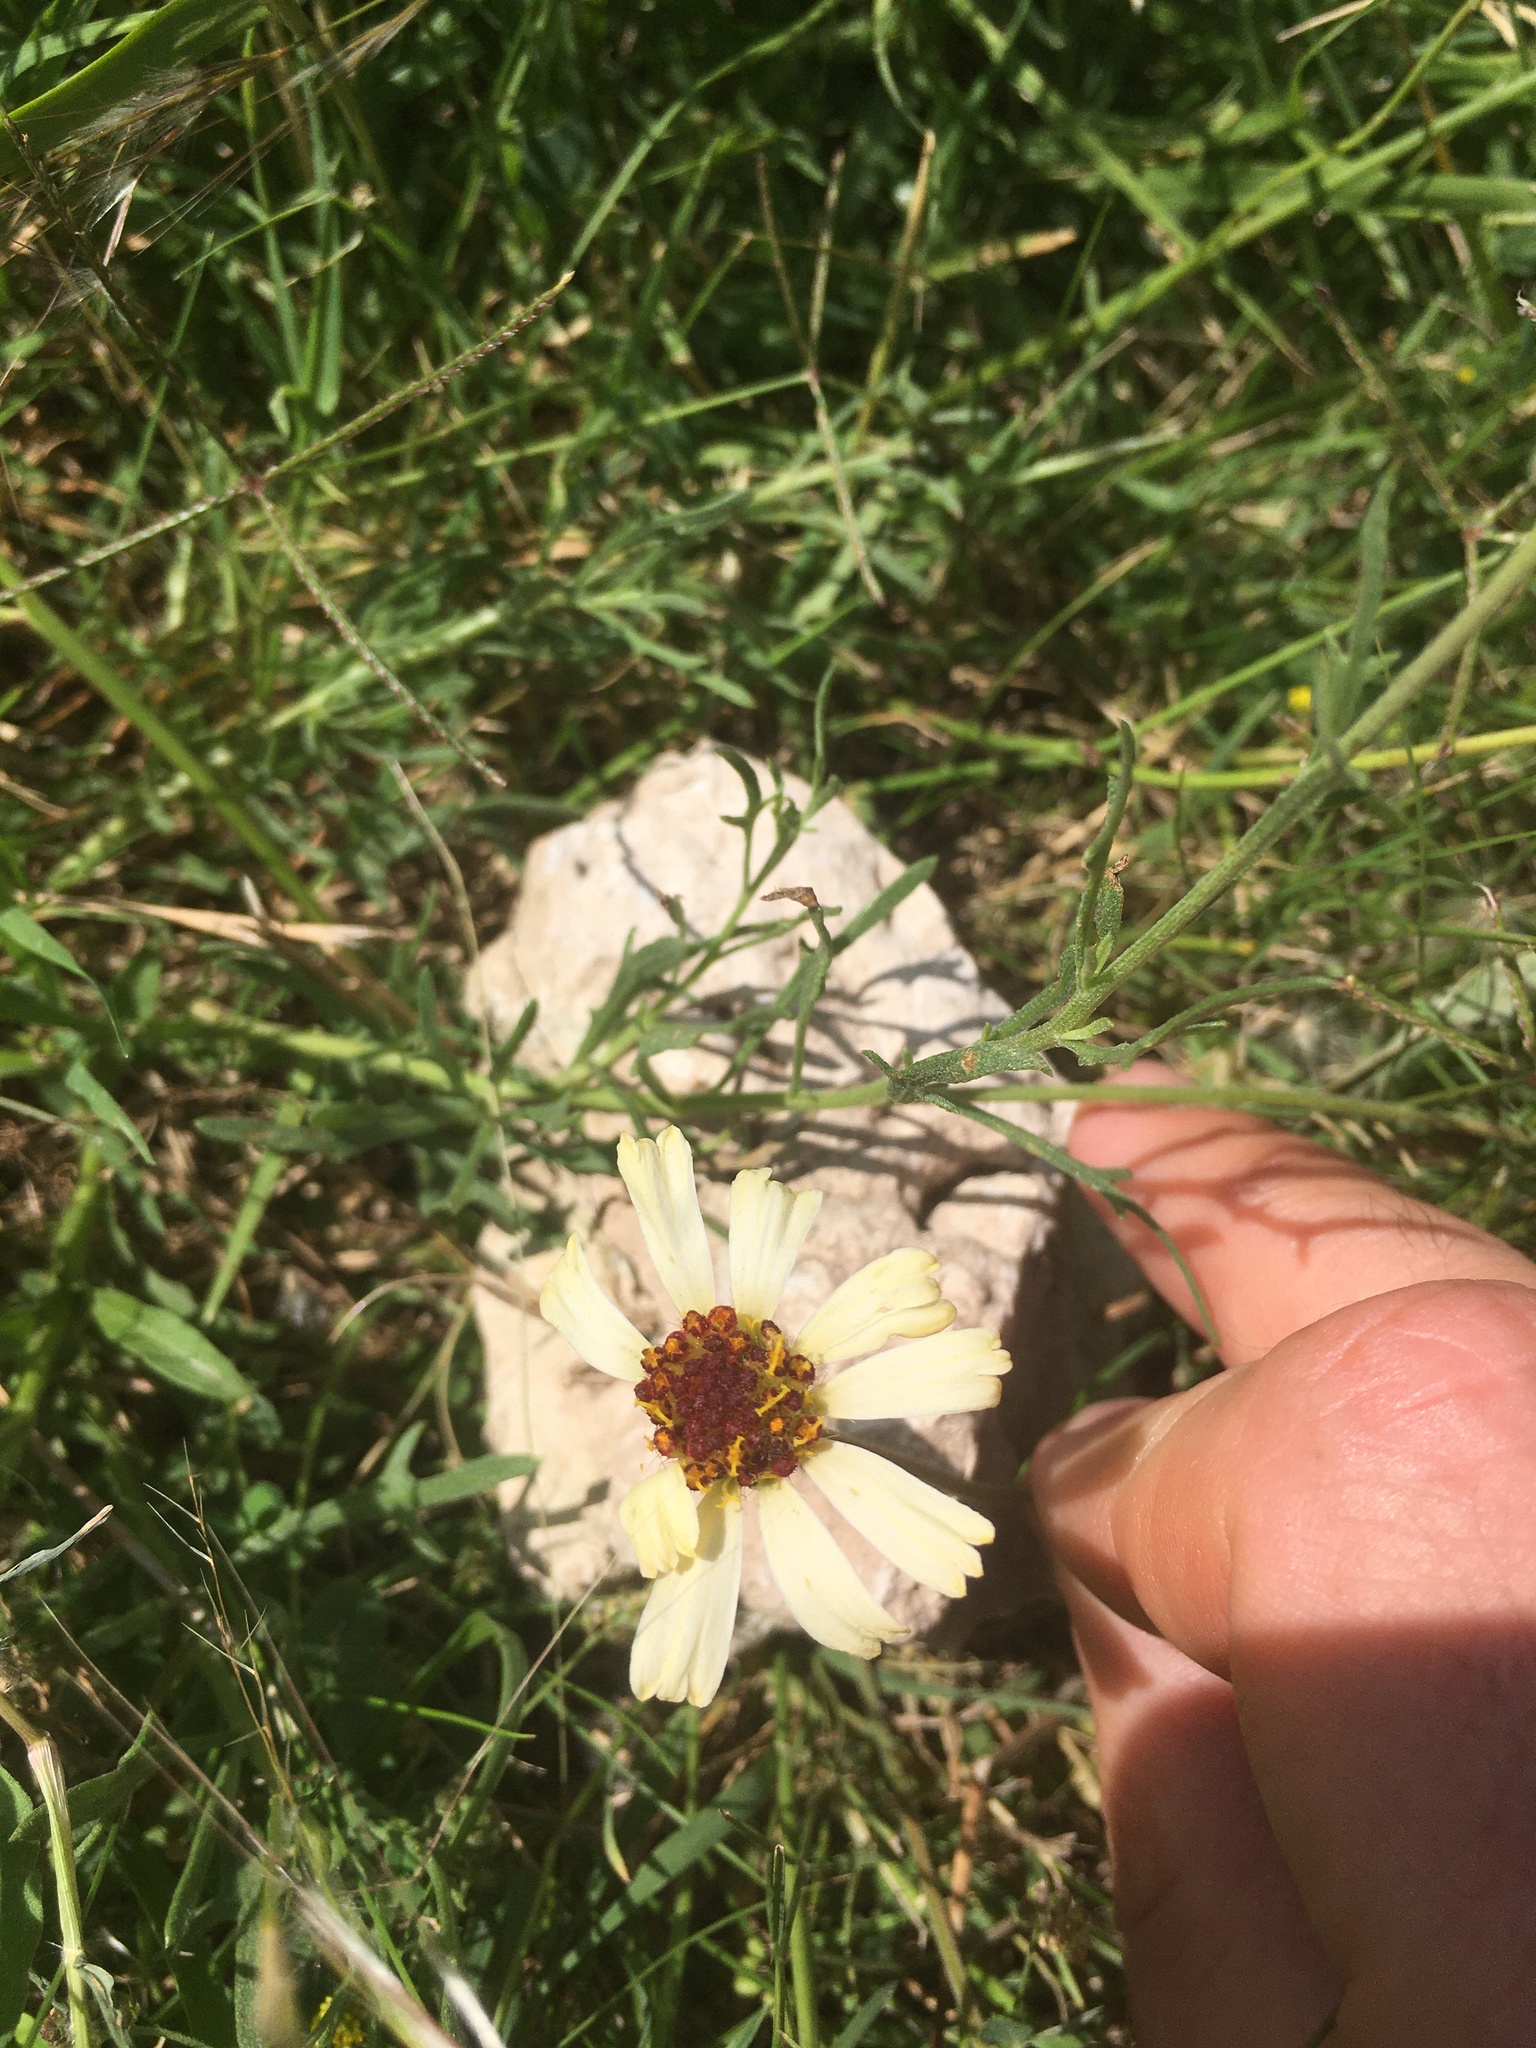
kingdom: Plantae
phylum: Tracheophyta
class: Magnoliopsida
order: Asterales
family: Asteraceae
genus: Helenium
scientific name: Helenium uniflorum
